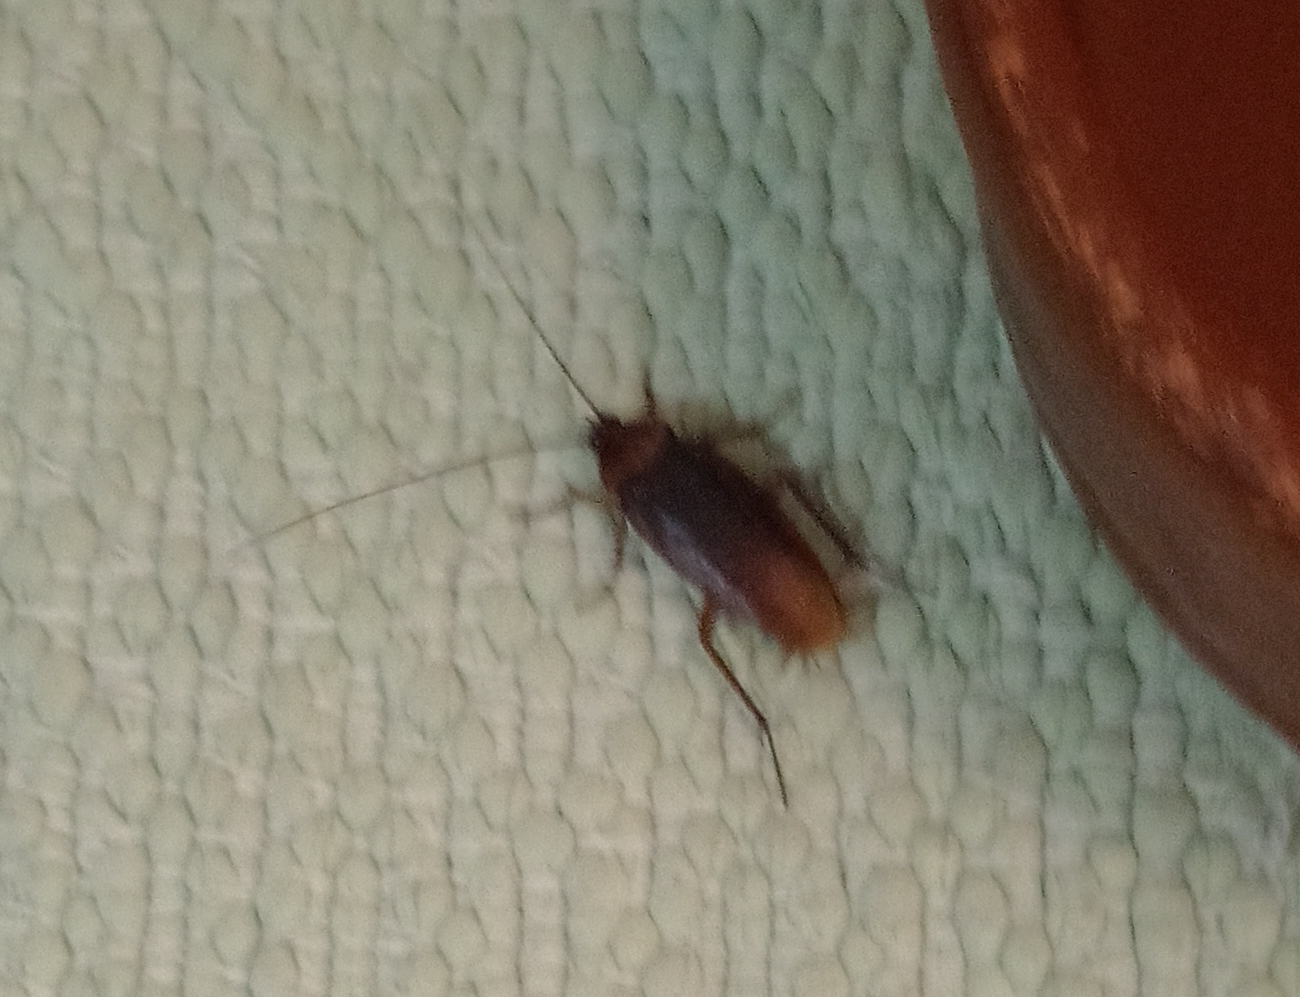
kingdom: Animalia
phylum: Arthropoda
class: Insecta
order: Blattodea
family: Blattidae
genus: Periplaneta
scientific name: Periplaneta americana
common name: American cockroach
